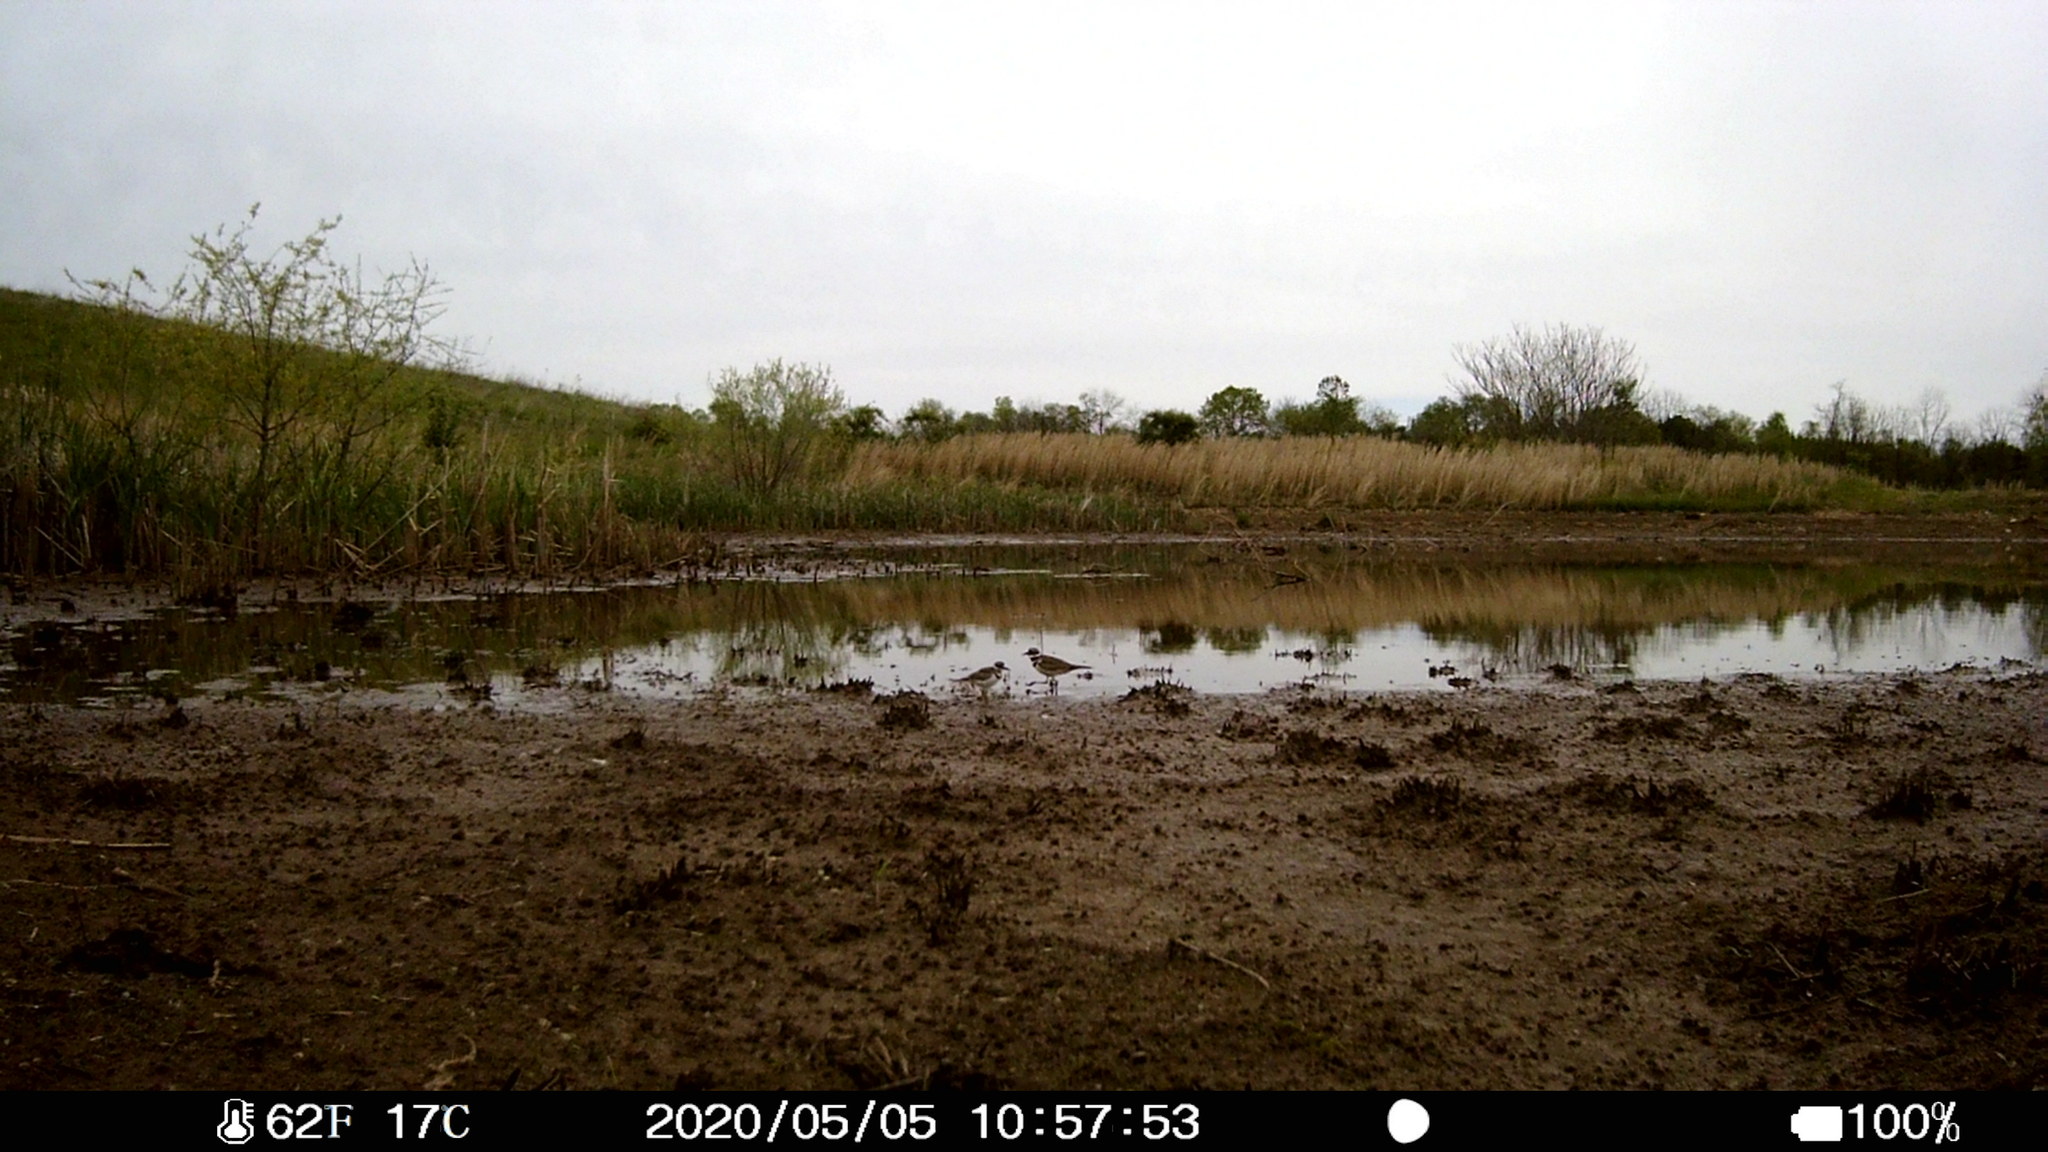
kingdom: Animalia
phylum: Chordata
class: Aves
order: Charadriiformes
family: Charadriidae
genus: Charadrius
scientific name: Charadrius vociferus
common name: Killdeer
